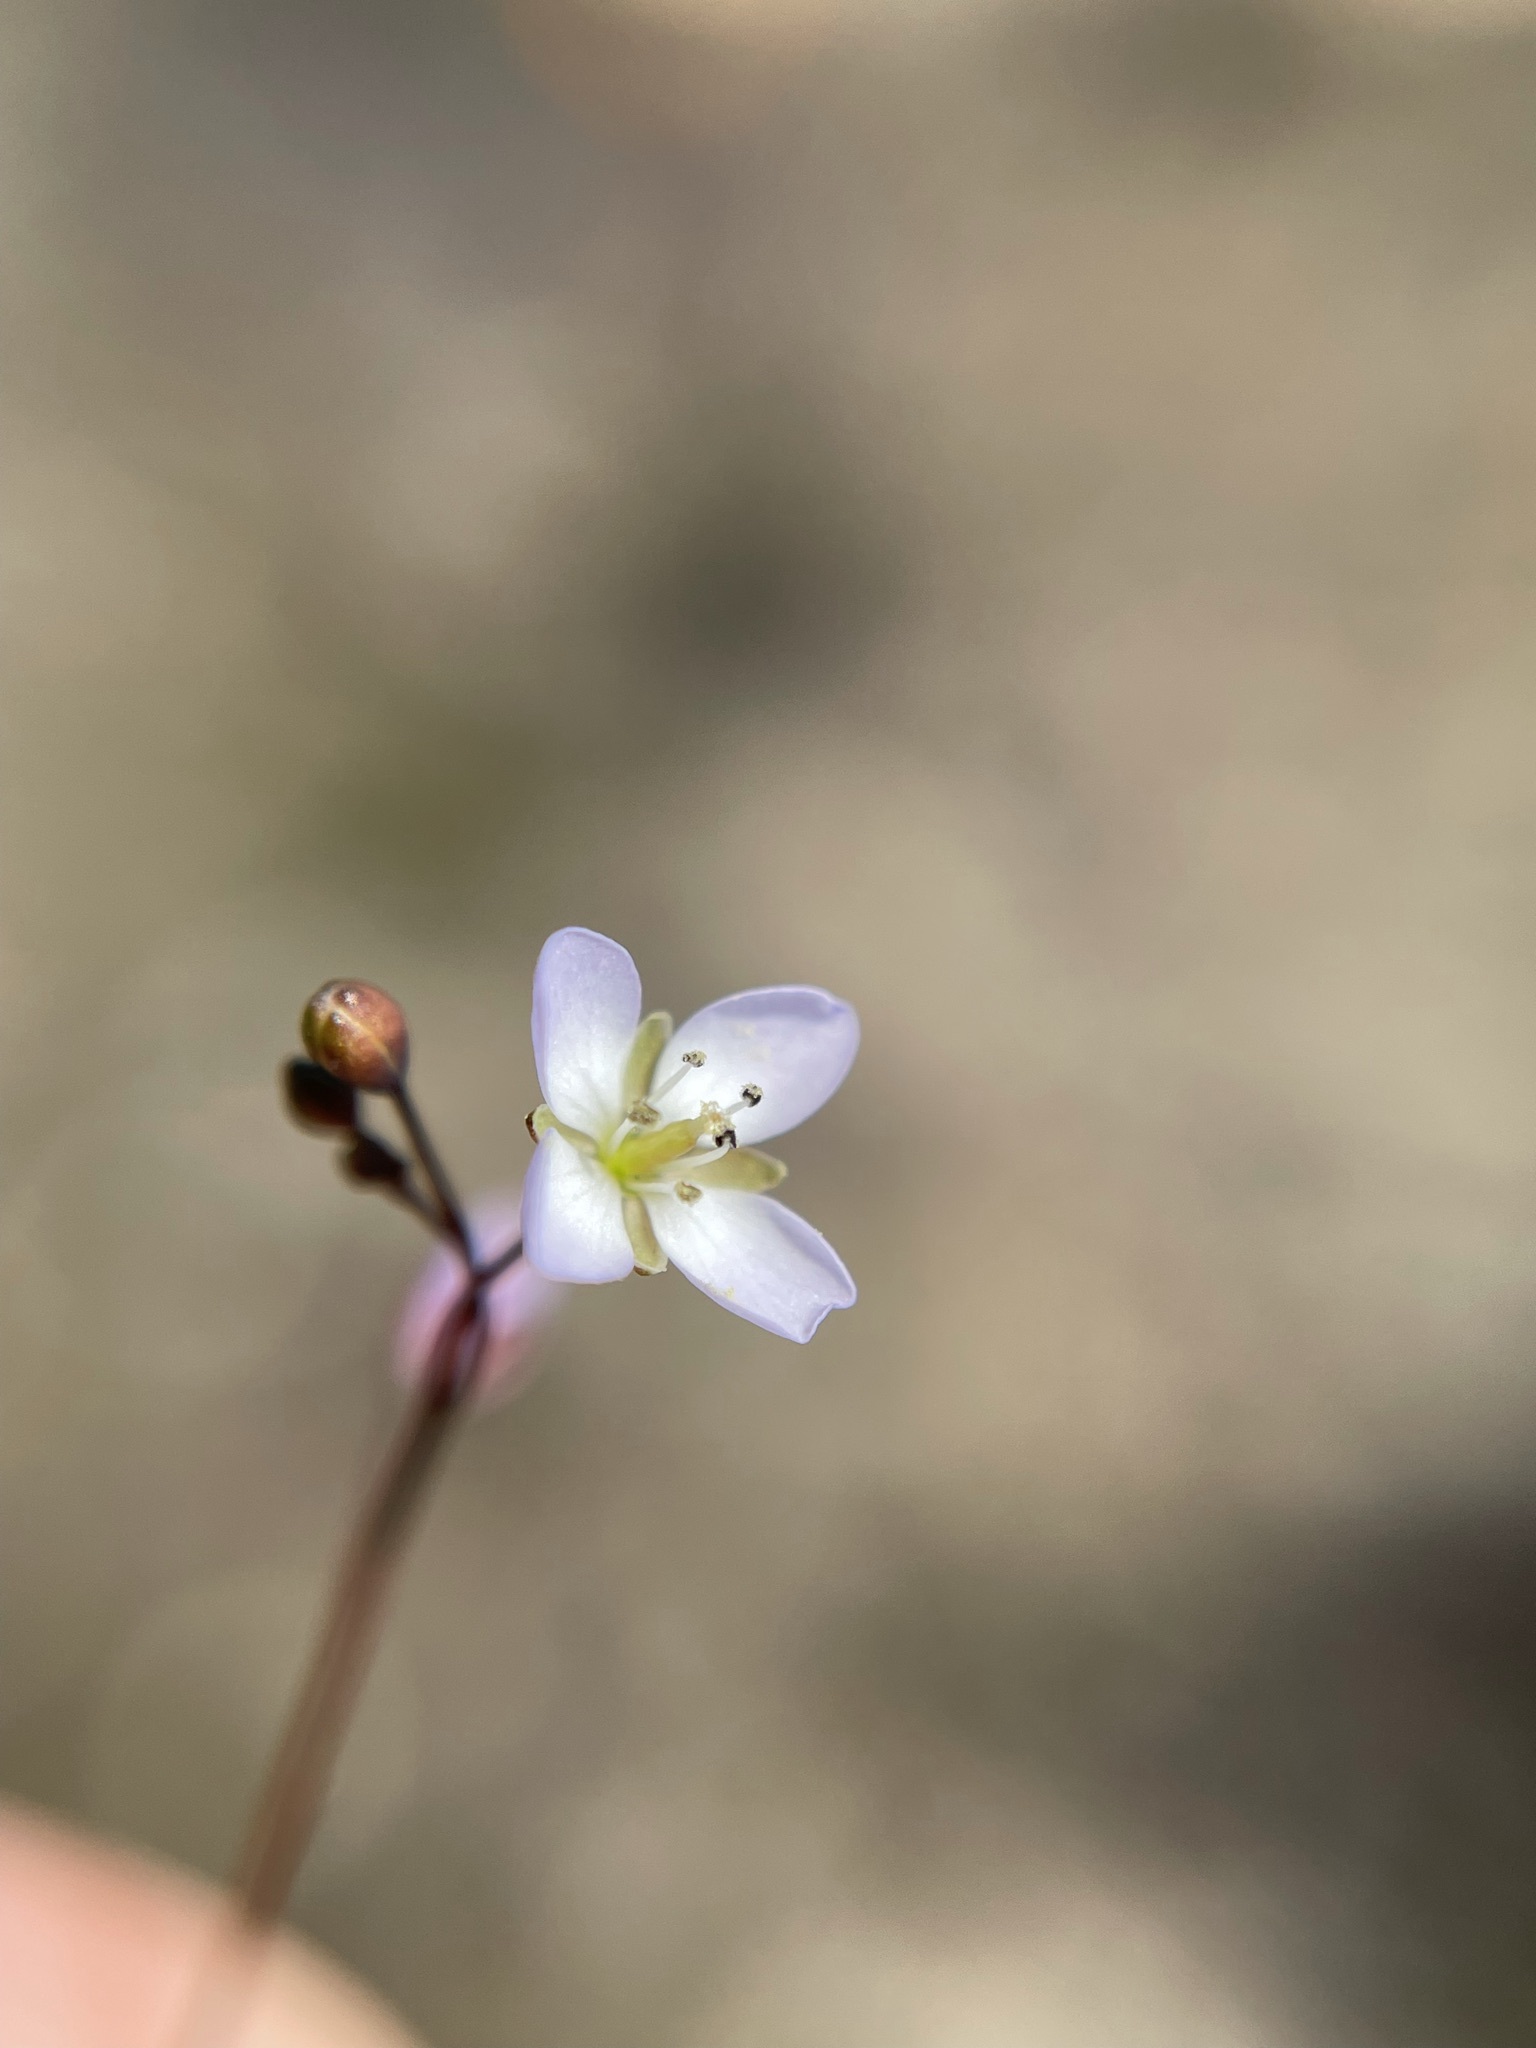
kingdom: Plantae
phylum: Tracheophyta
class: Magnoliopsida
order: Brassicales
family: Brassicaceae
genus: Heliophila
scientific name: Heliophila pinnata
